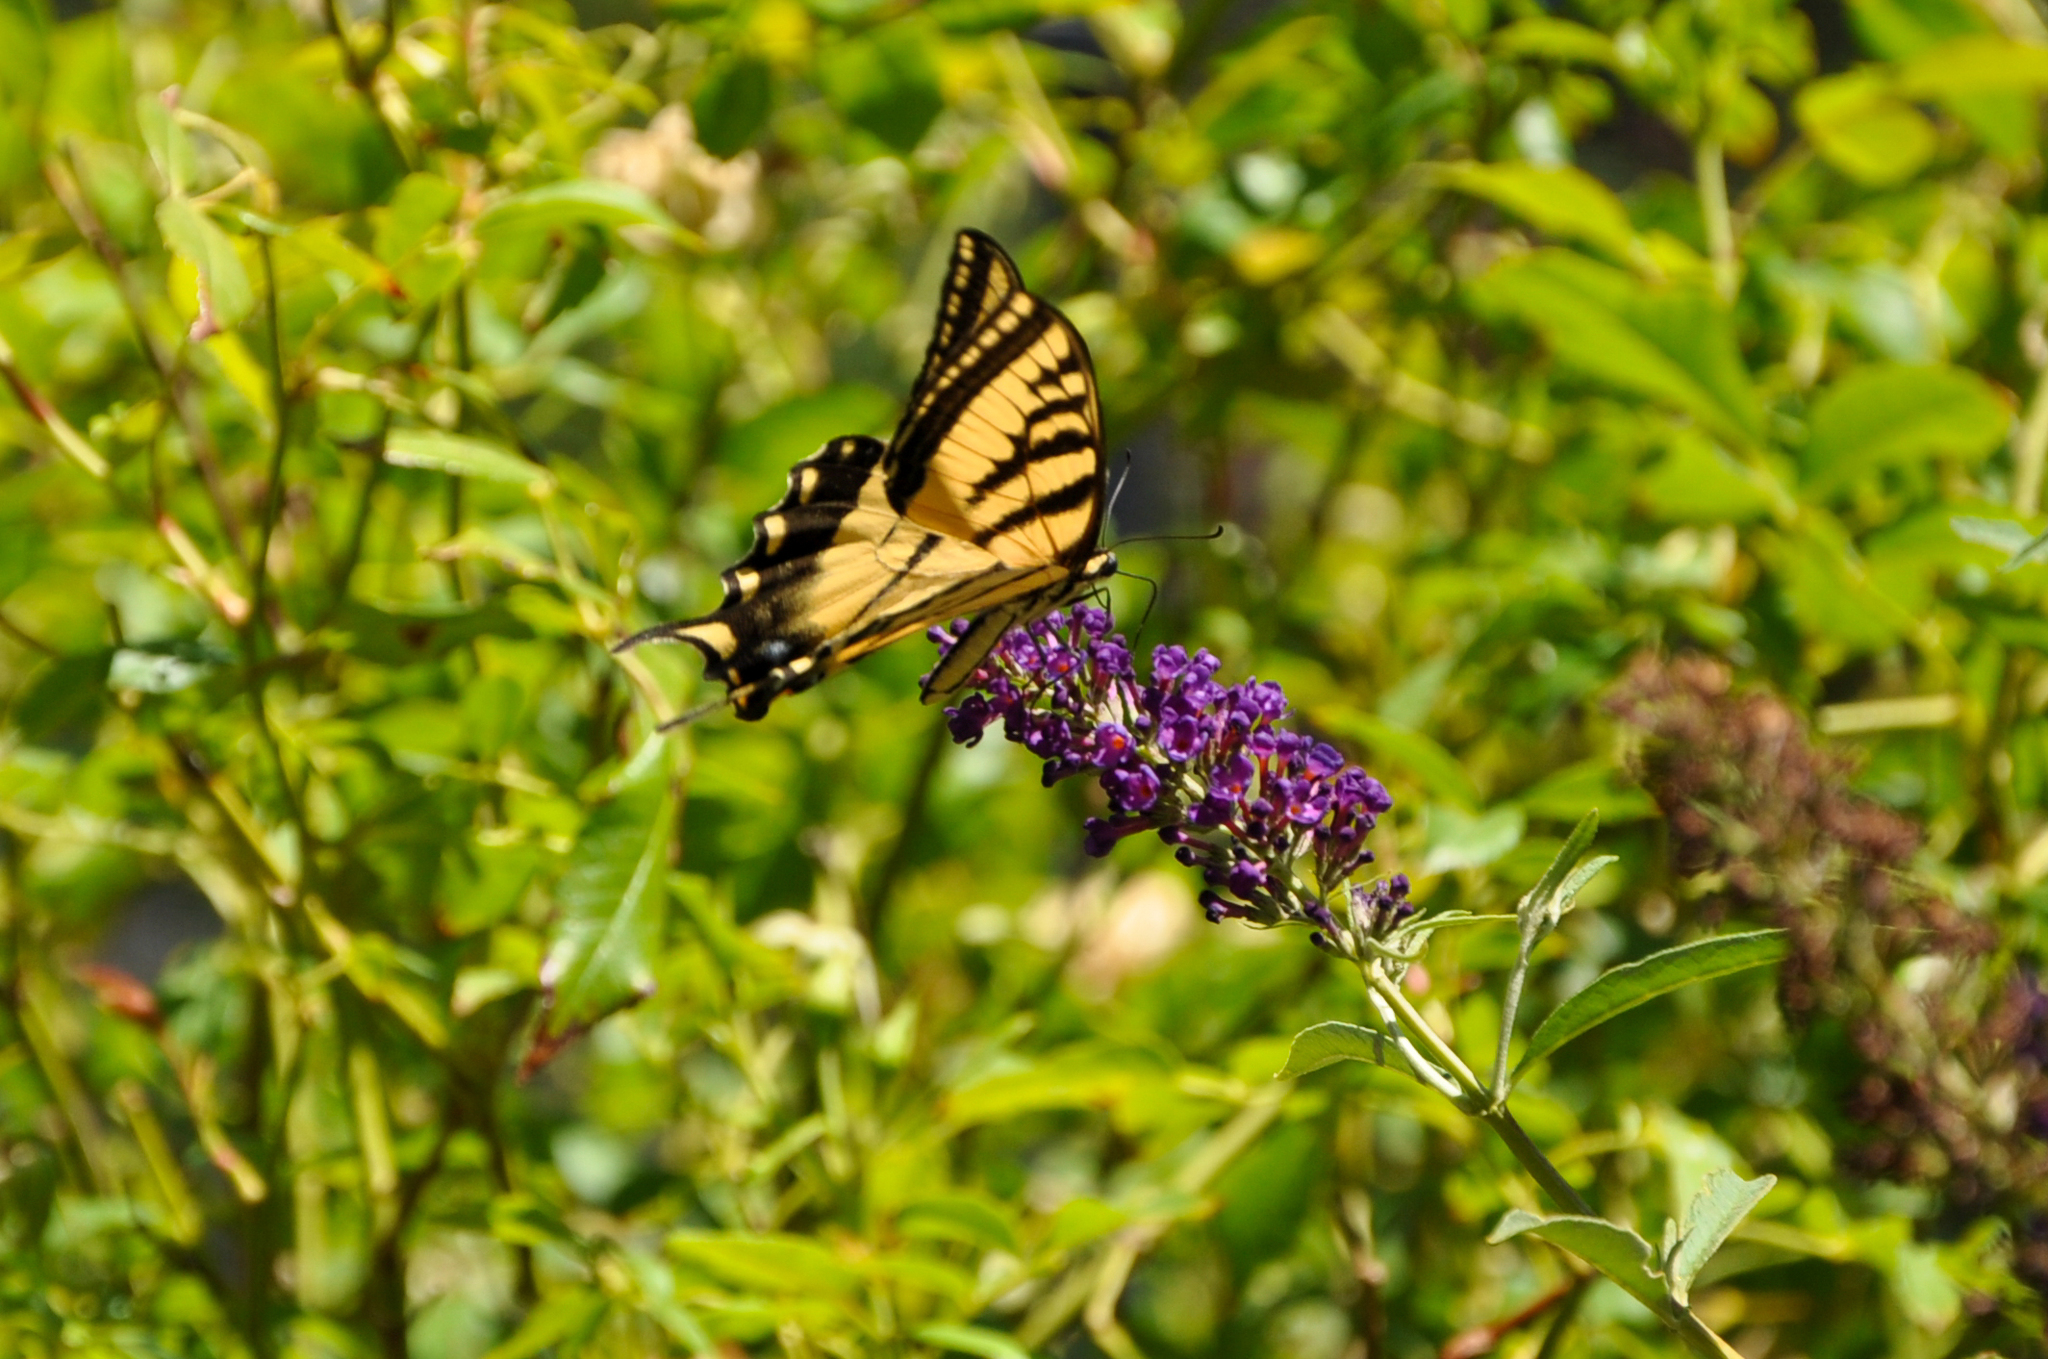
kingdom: Animalia
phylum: Arthropoda
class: Insecta
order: Lepidoptera
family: Papilionidae
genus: Papilio
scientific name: Papilio rutulus
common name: Western tiger swallowtail
